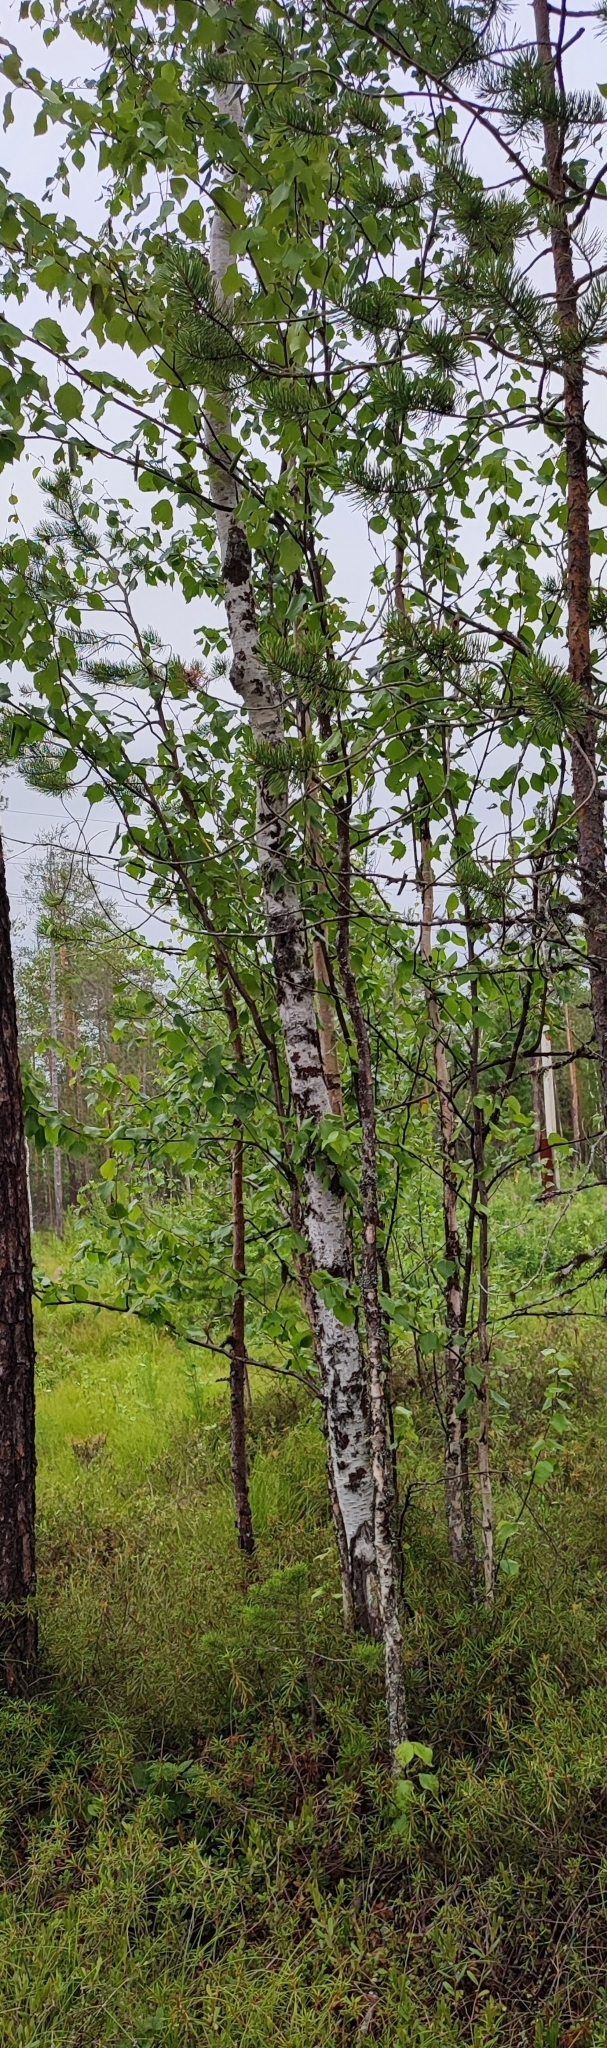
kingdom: Plantae
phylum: Tracheophyta
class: Magnoliopsida
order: Fagales
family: Betulaceae
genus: Betula
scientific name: Betula pubescens
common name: Downy birch
